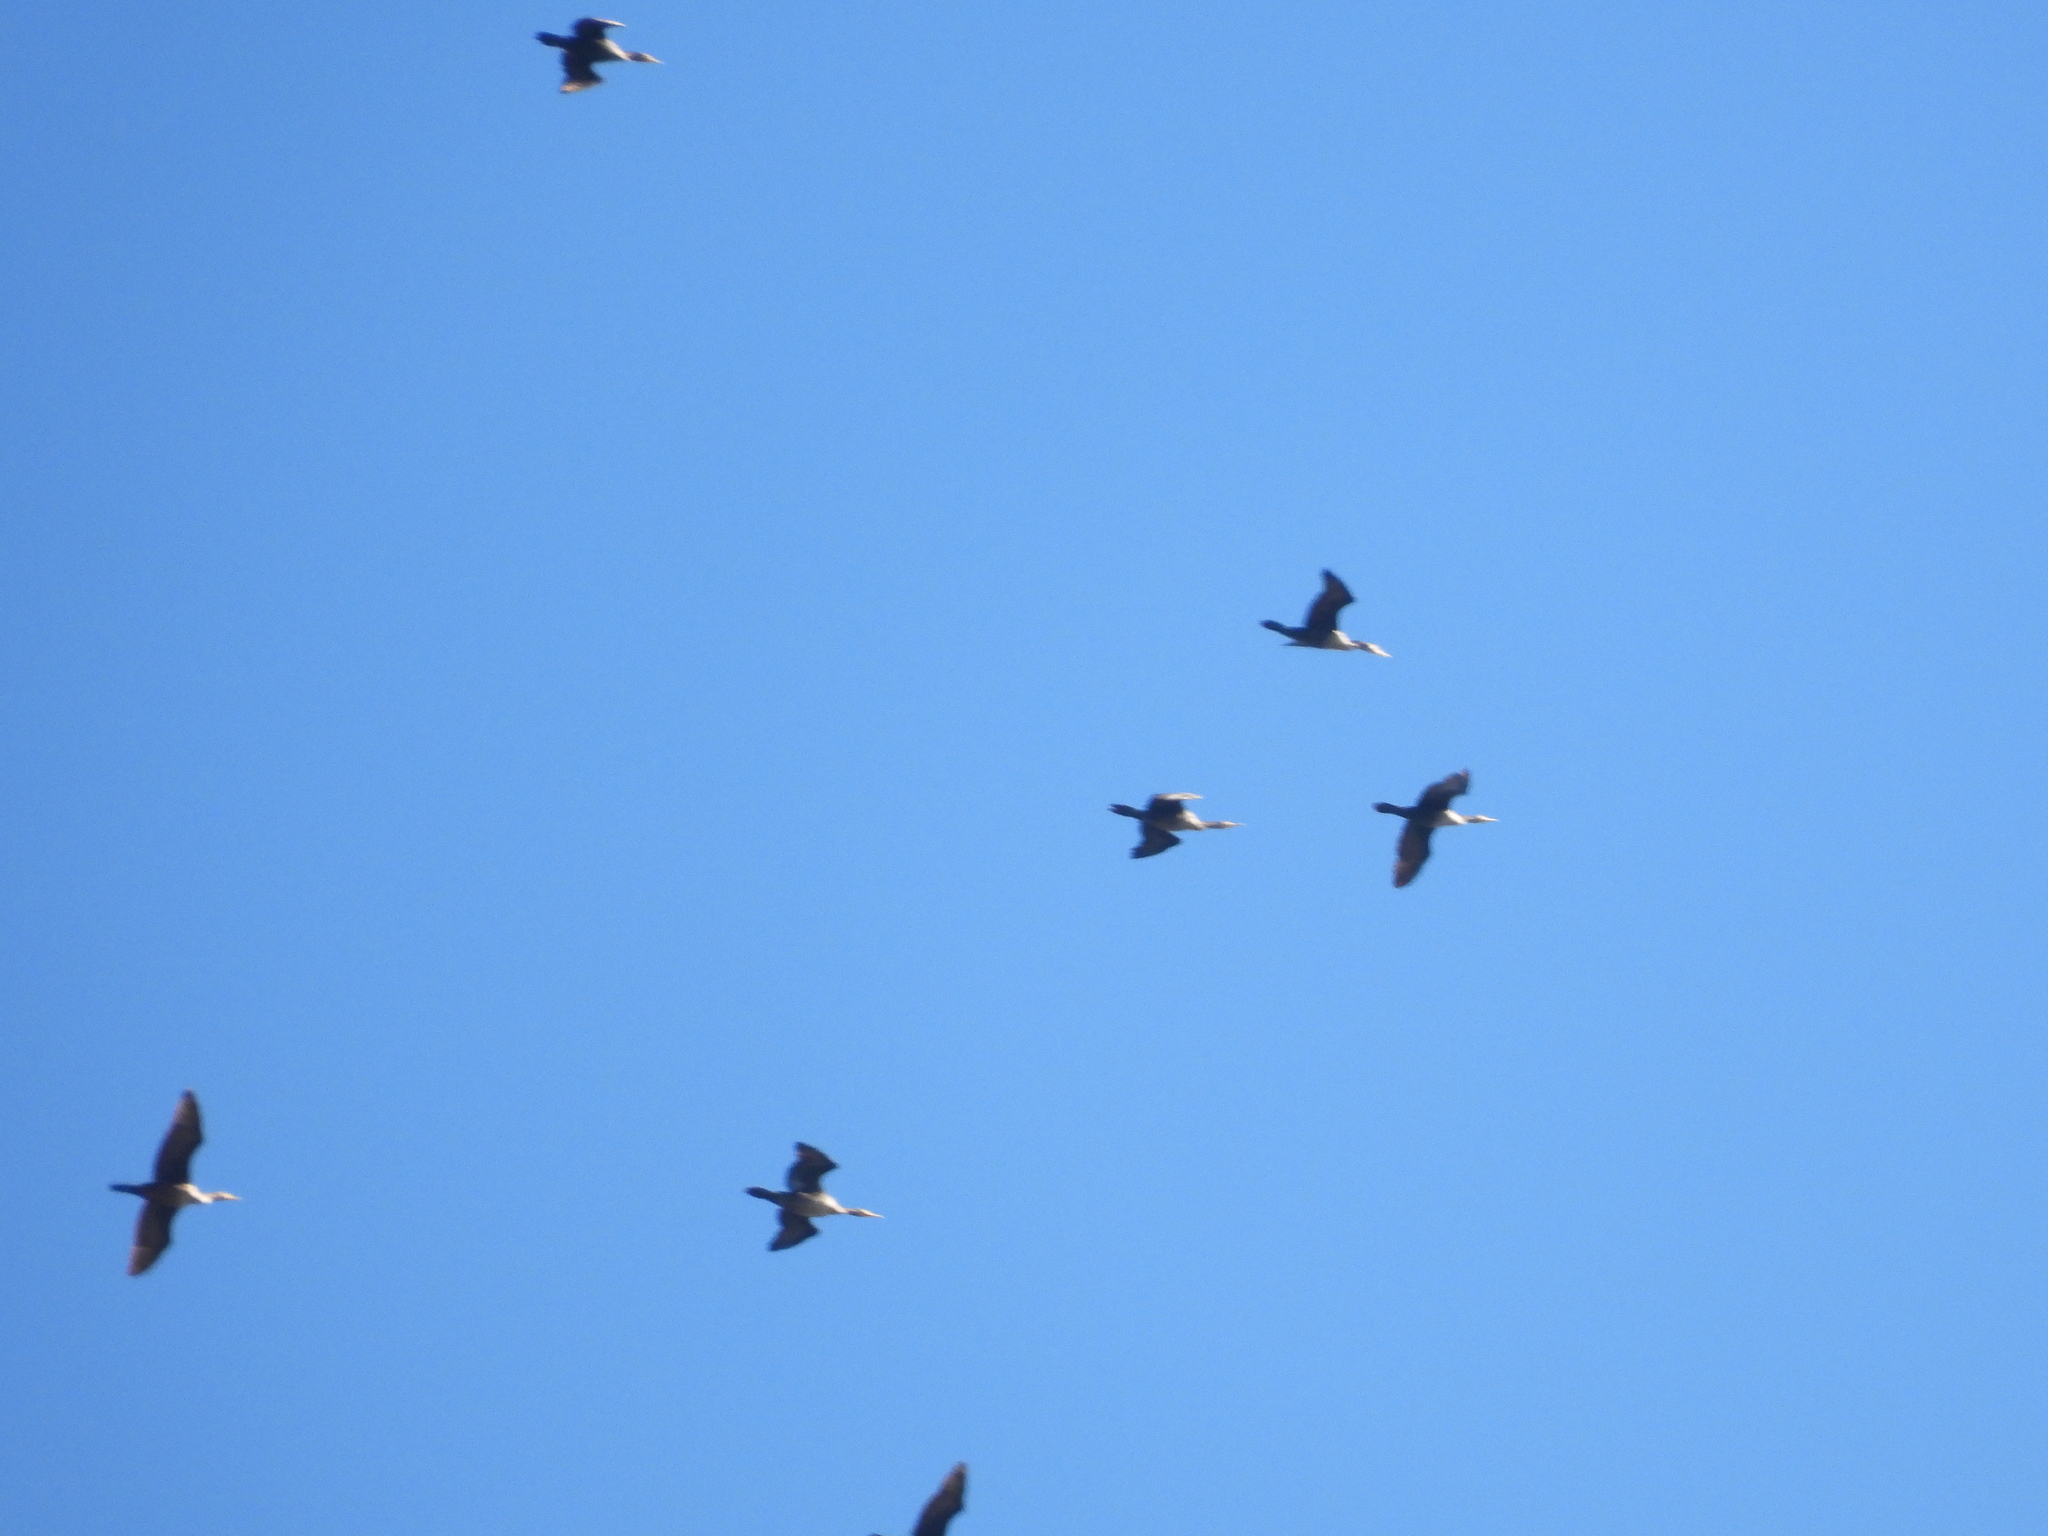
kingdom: Animalia
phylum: Chordata
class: Aves
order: Suliformes
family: Phalacrocoracidae
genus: Phalacrocorax
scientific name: Phalacrocorax auritus
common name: Double-crested cormorant
